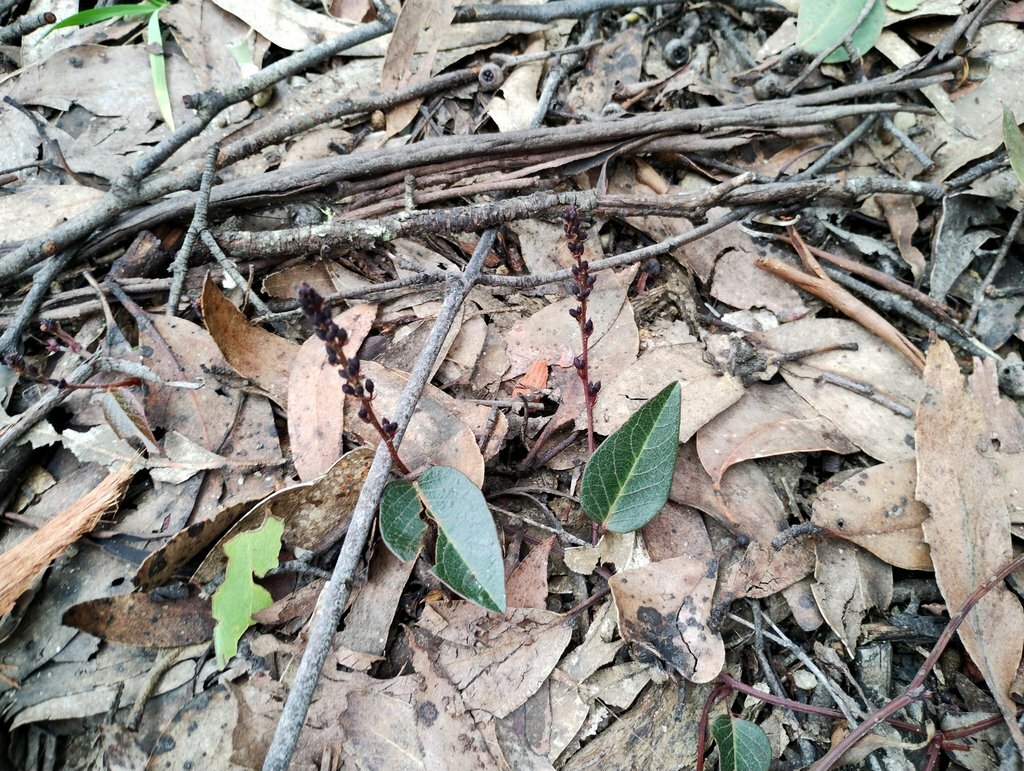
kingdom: Plantae
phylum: Tracheophyta
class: Magnoliopsida
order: Fabales
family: Fabaceae
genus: Hardenbergia
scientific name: Hardenbergia violacea
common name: Coral-pea
